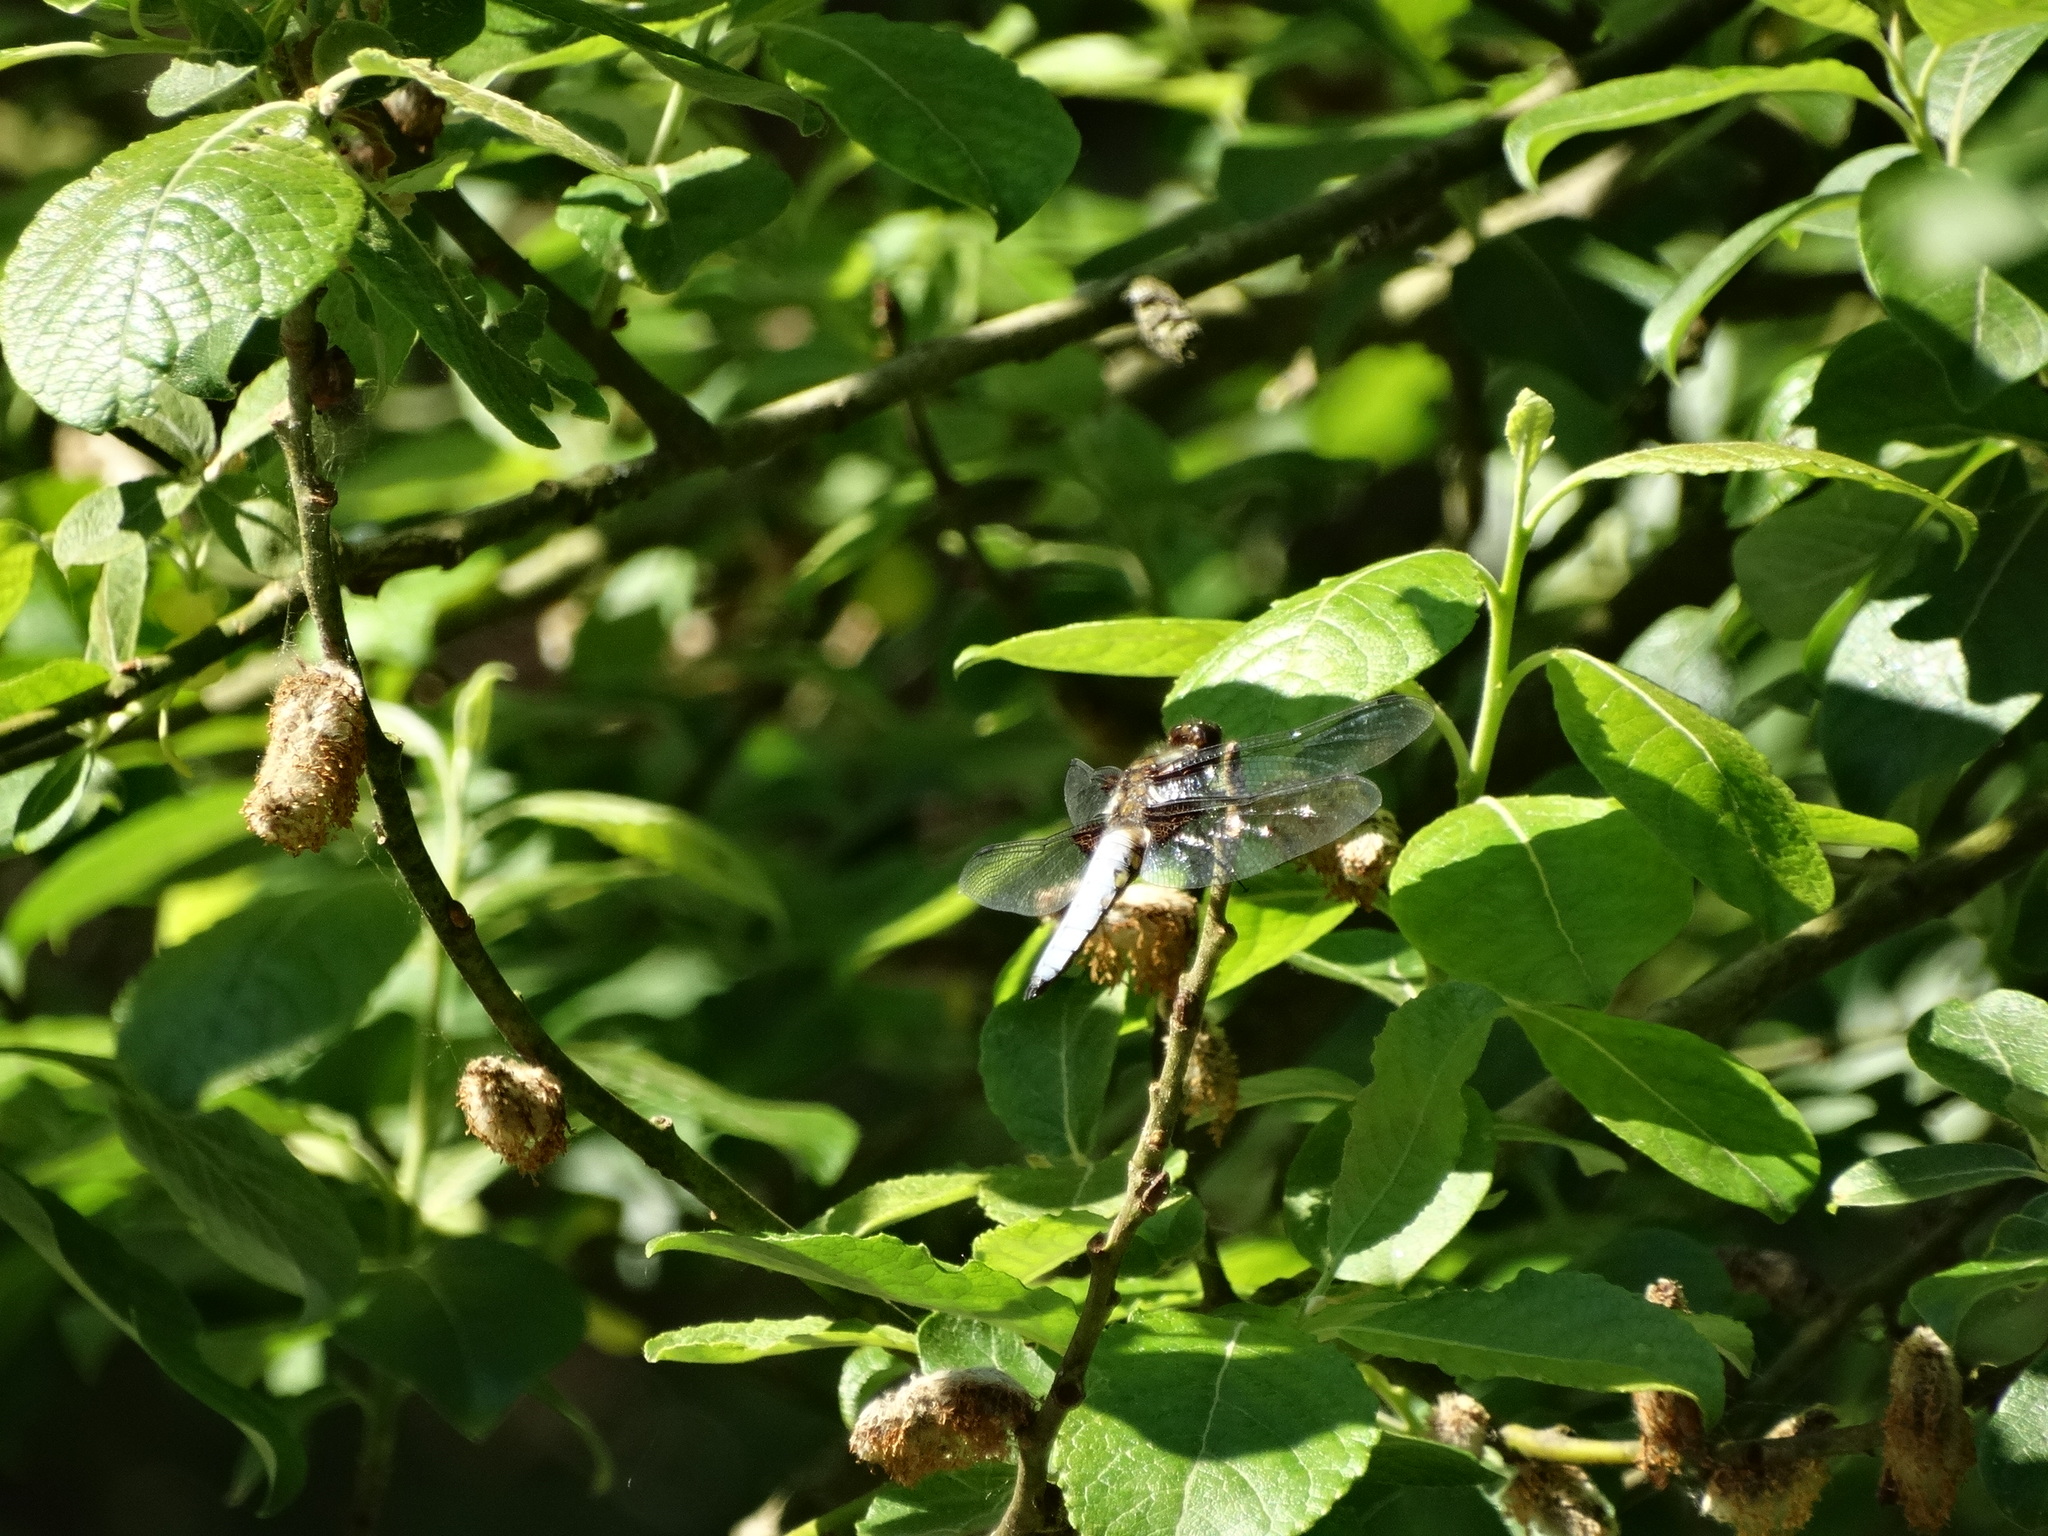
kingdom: Animalia
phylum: Arthropoda
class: Insecta
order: Odonata
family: Libellulidae
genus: Libellula
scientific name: Libellula depressa
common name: Broad-bodied chaser
